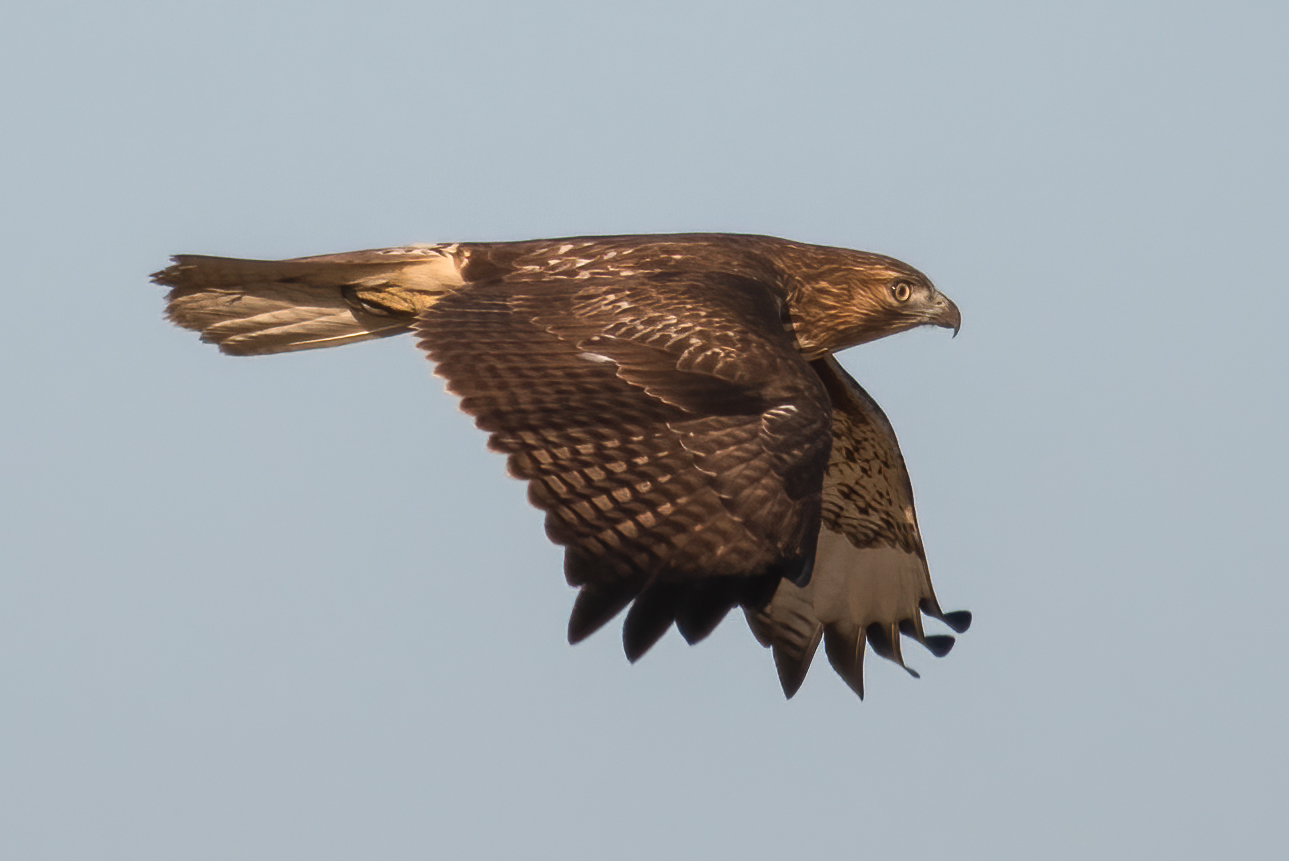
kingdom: Animalia
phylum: Chordata
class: Aves
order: Accipitriformes
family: Accipitridae
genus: Buteo
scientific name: Buteo jamaicensis
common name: Red-tailed hawk
